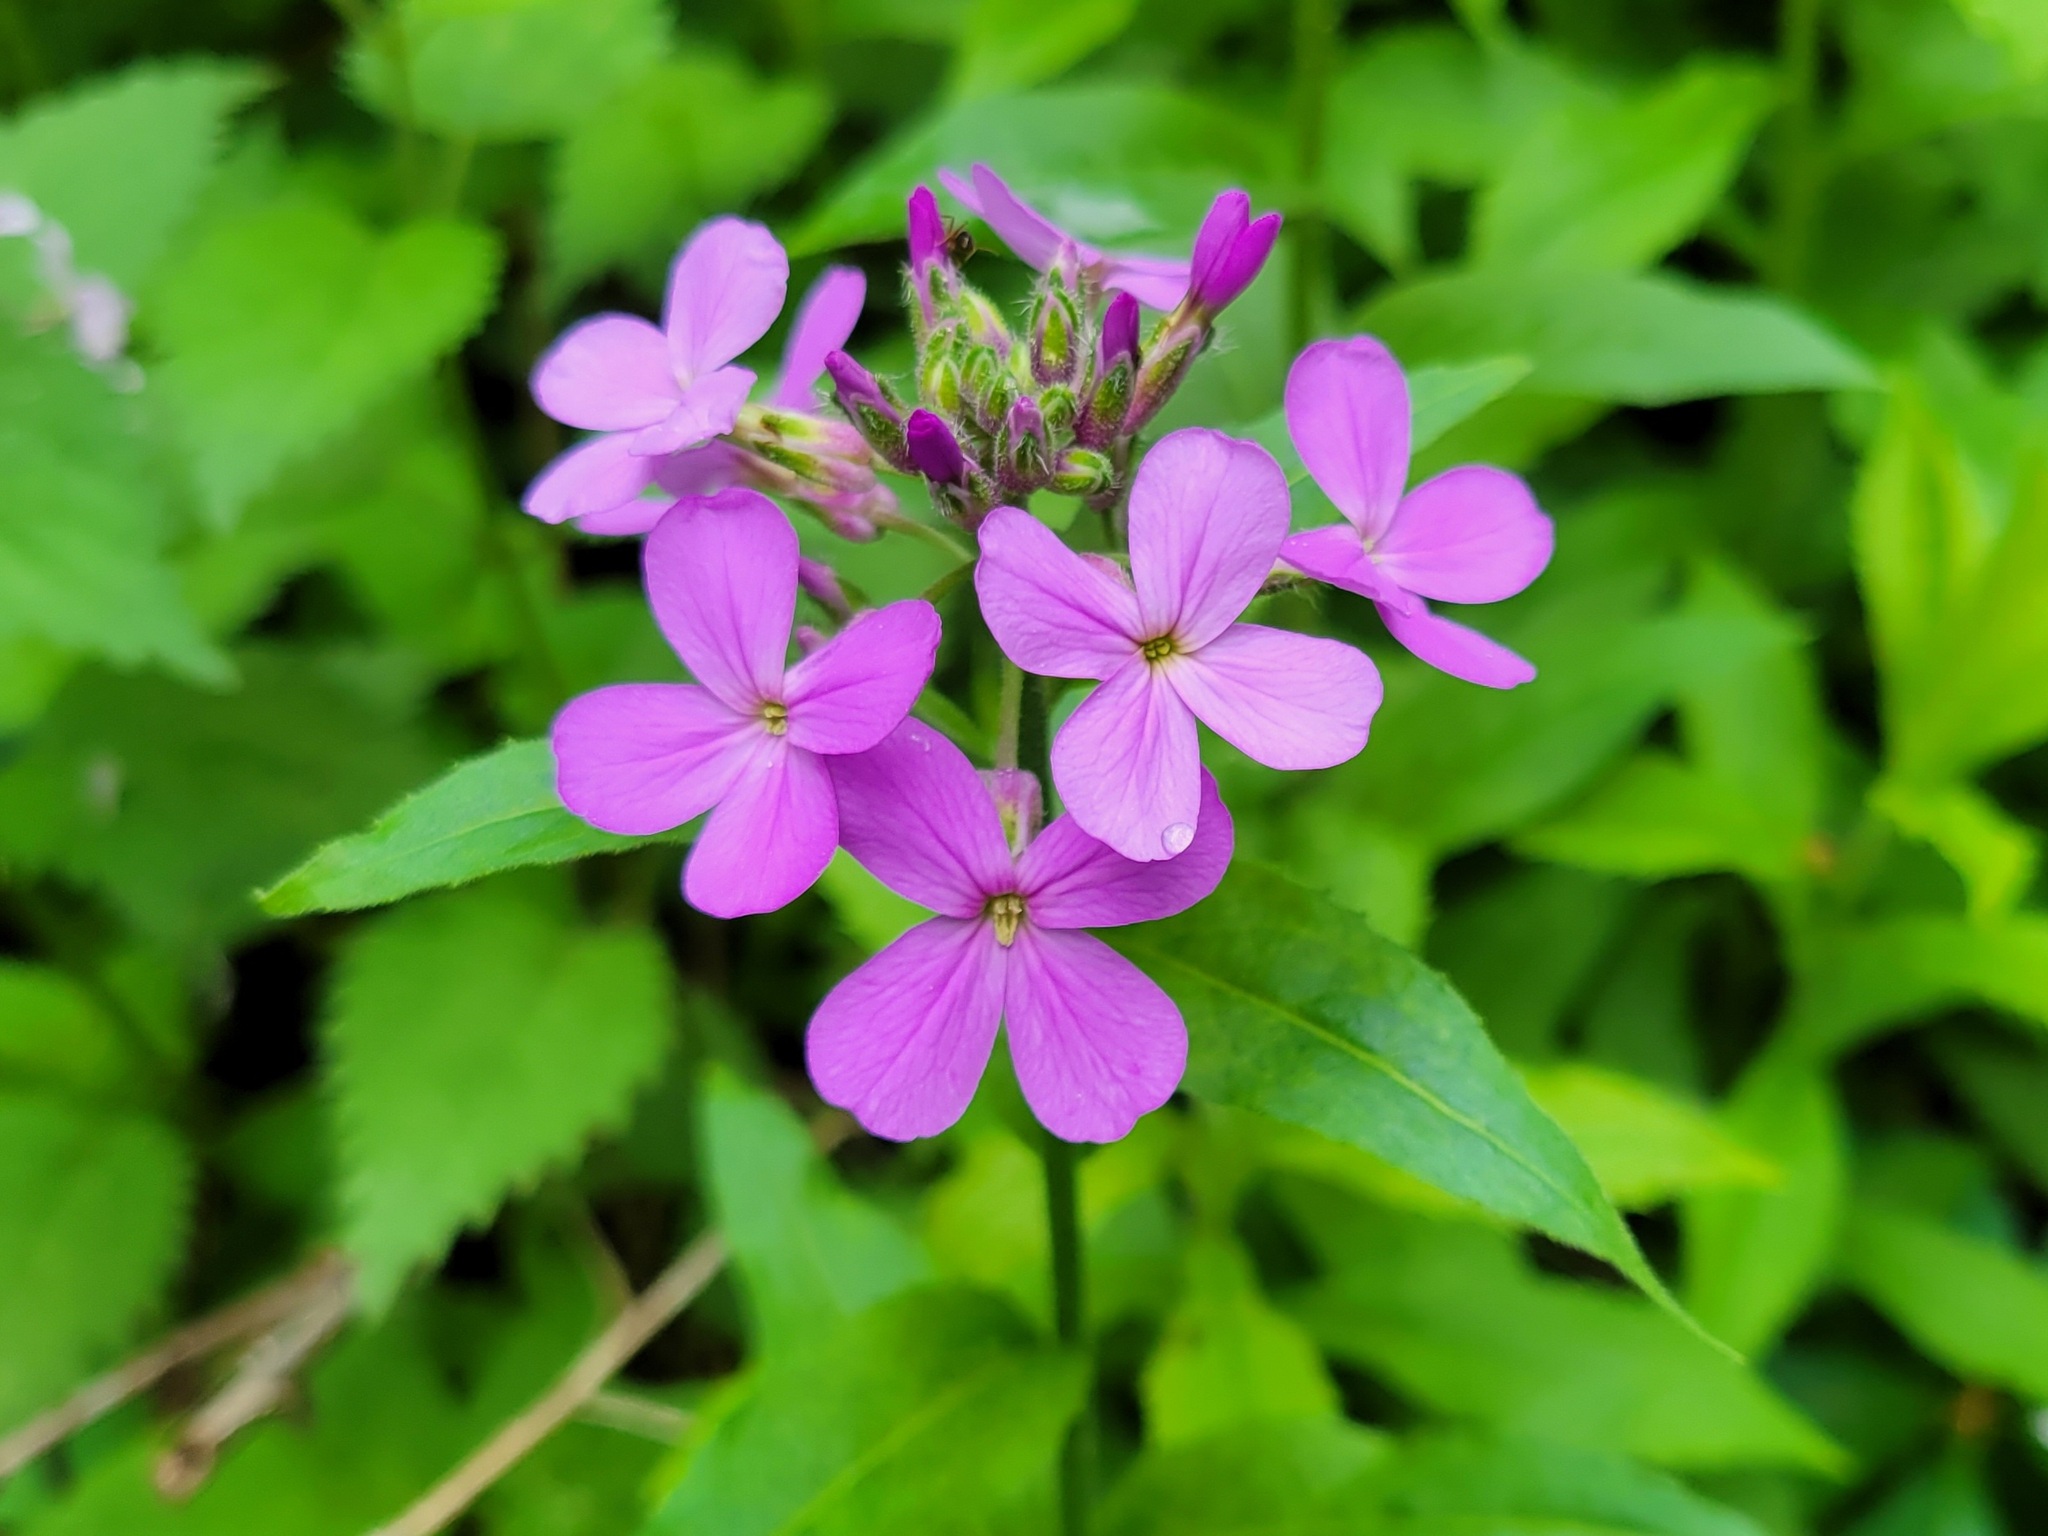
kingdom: Plantae
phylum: Tracheophyta
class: Magnoliopsida
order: Brassicales
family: Brassicaceae
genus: Hesperis
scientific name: Hesperis matronalis
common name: Dame's-violet
